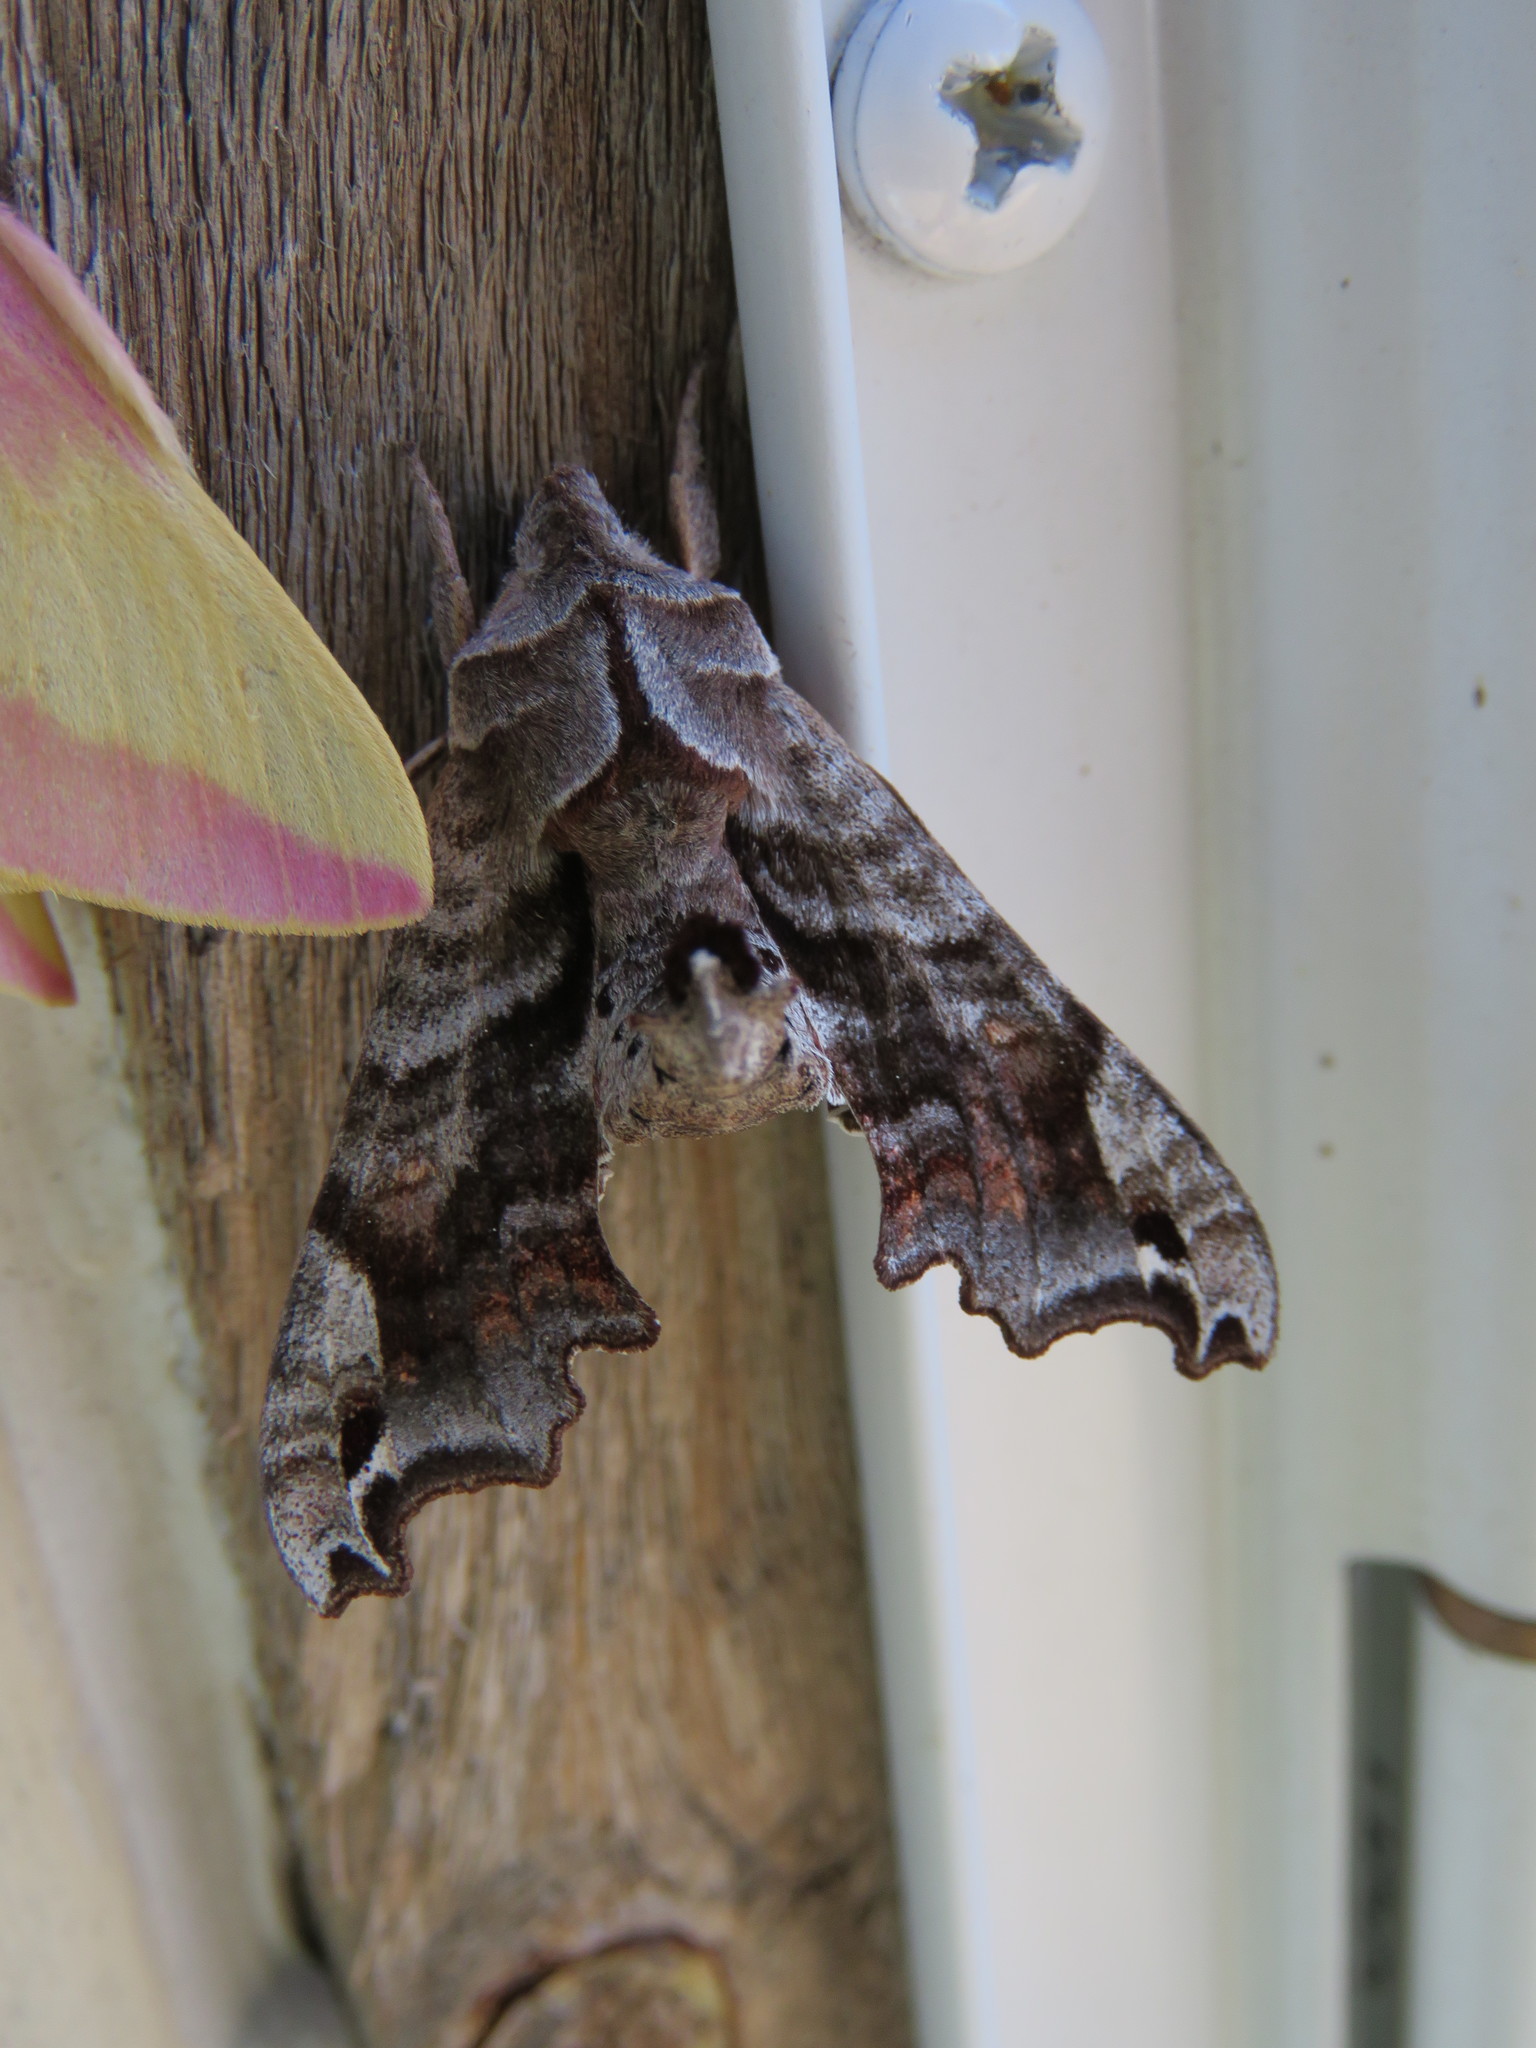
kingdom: Animalia
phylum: Arthropoda
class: Insecta
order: Lepidoptera
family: Sphingidae
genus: Deidamia
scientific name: Deidamia inscriptum
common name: Lettered sphinx
